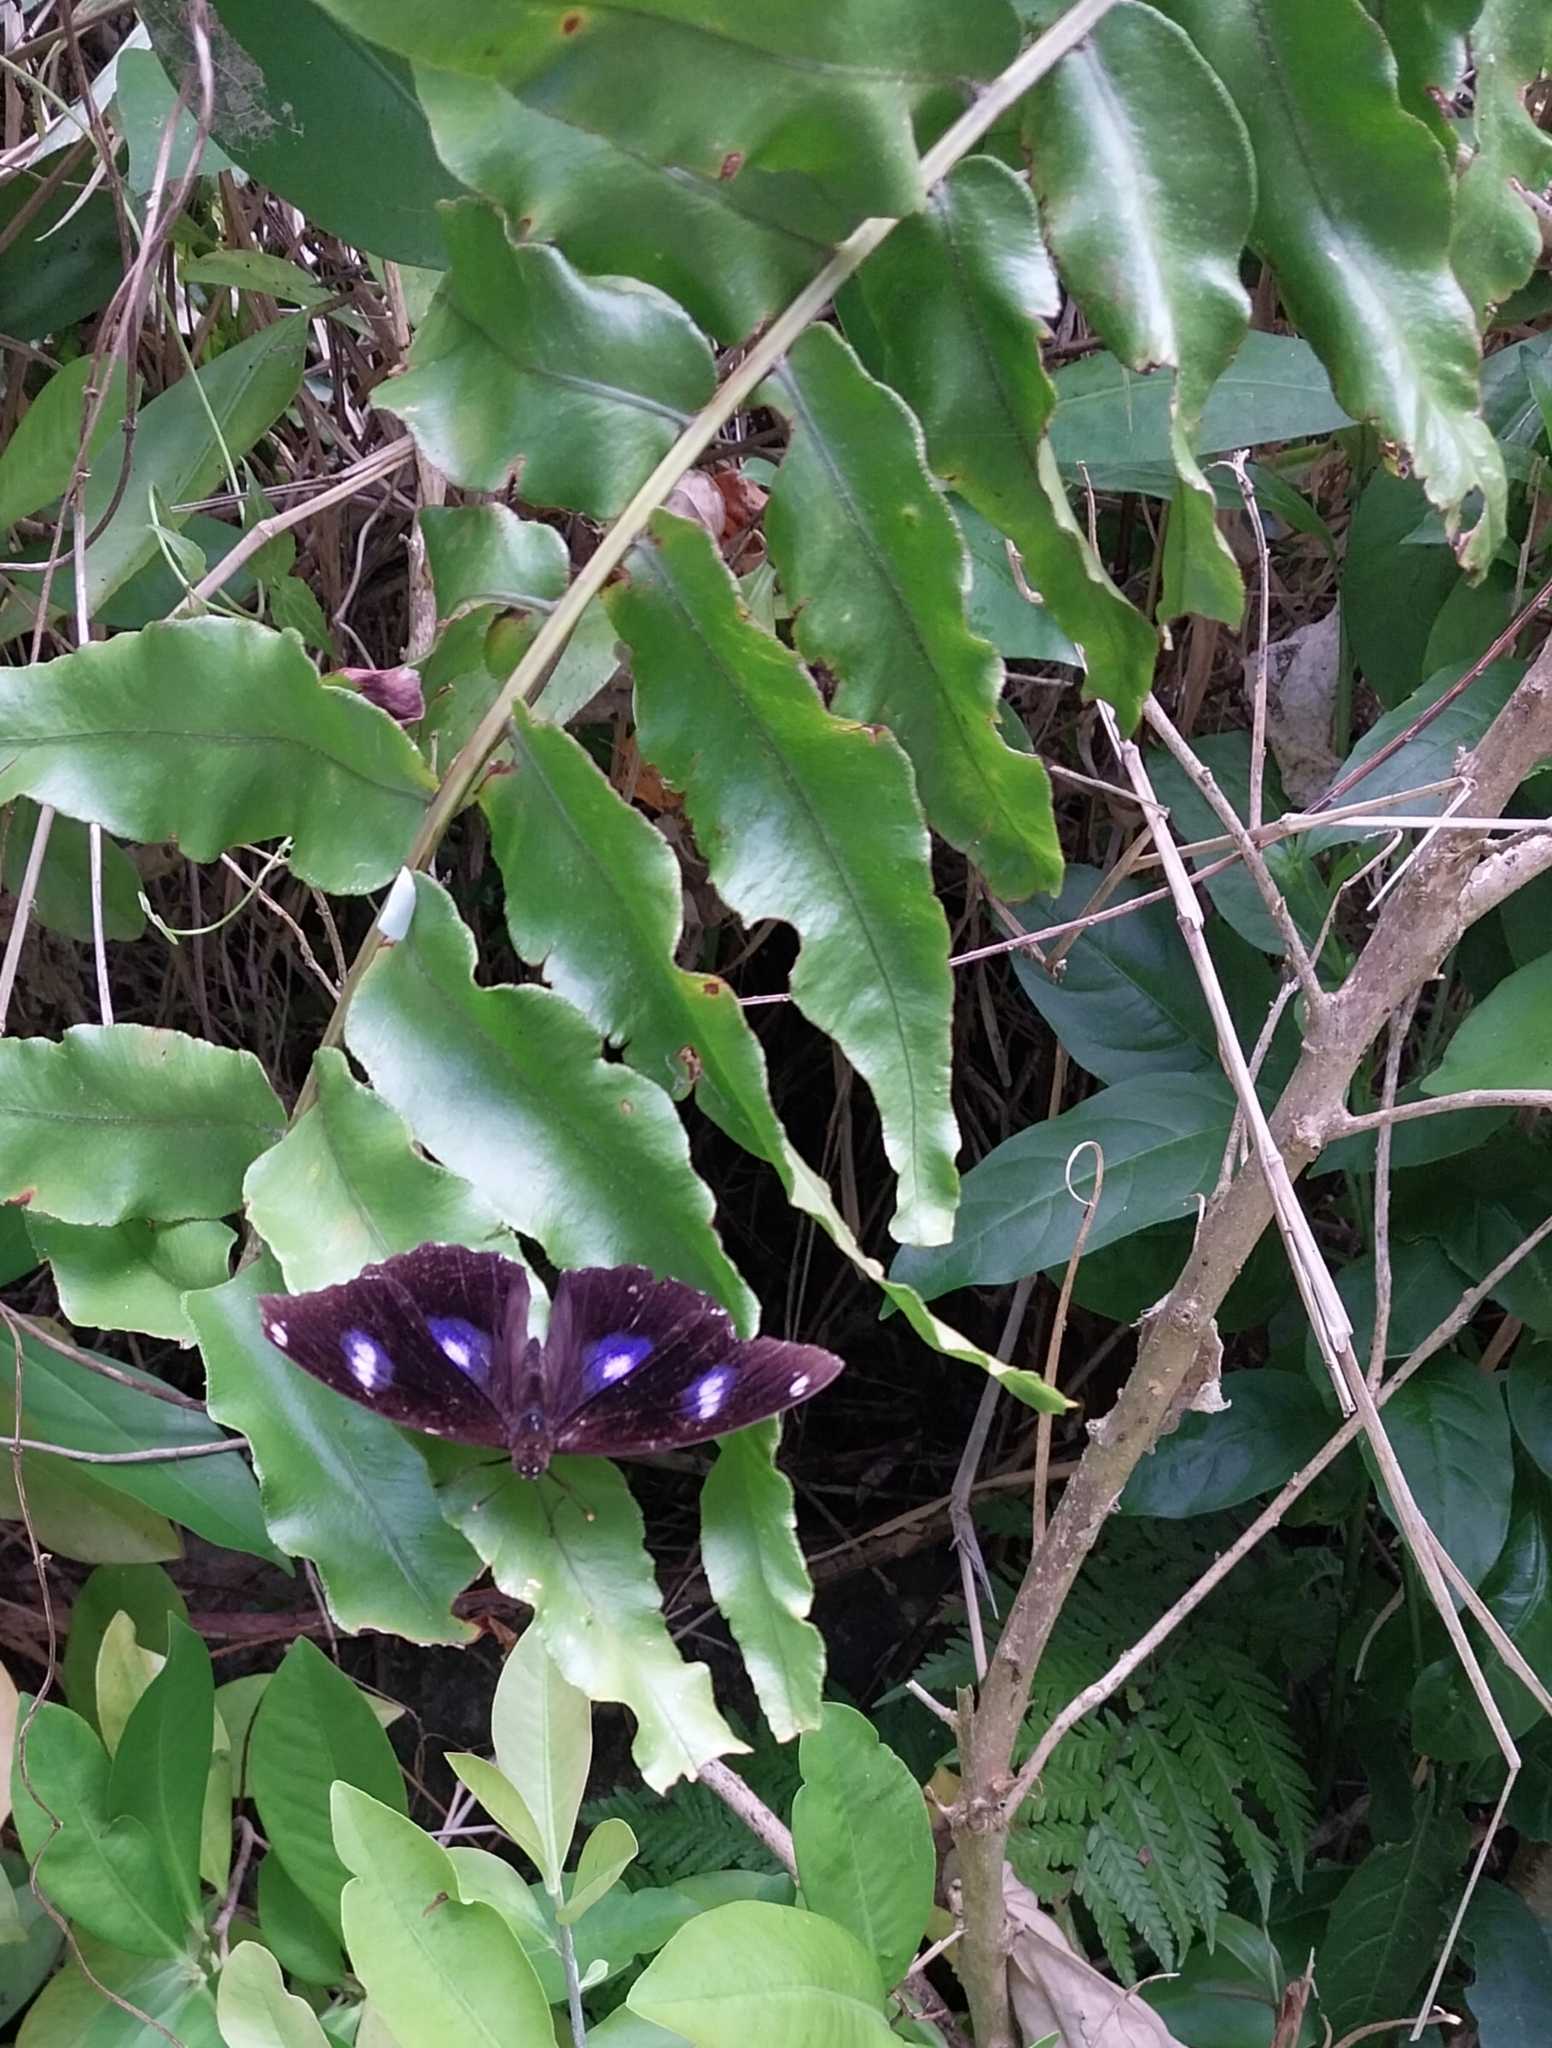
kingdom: Animalia
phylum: Arthropoda
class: Insecta
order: Lepidoptera
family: Nymphalidae
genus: Hypolimnas
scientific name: Hypolimnas bolina
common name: Great eggfly
